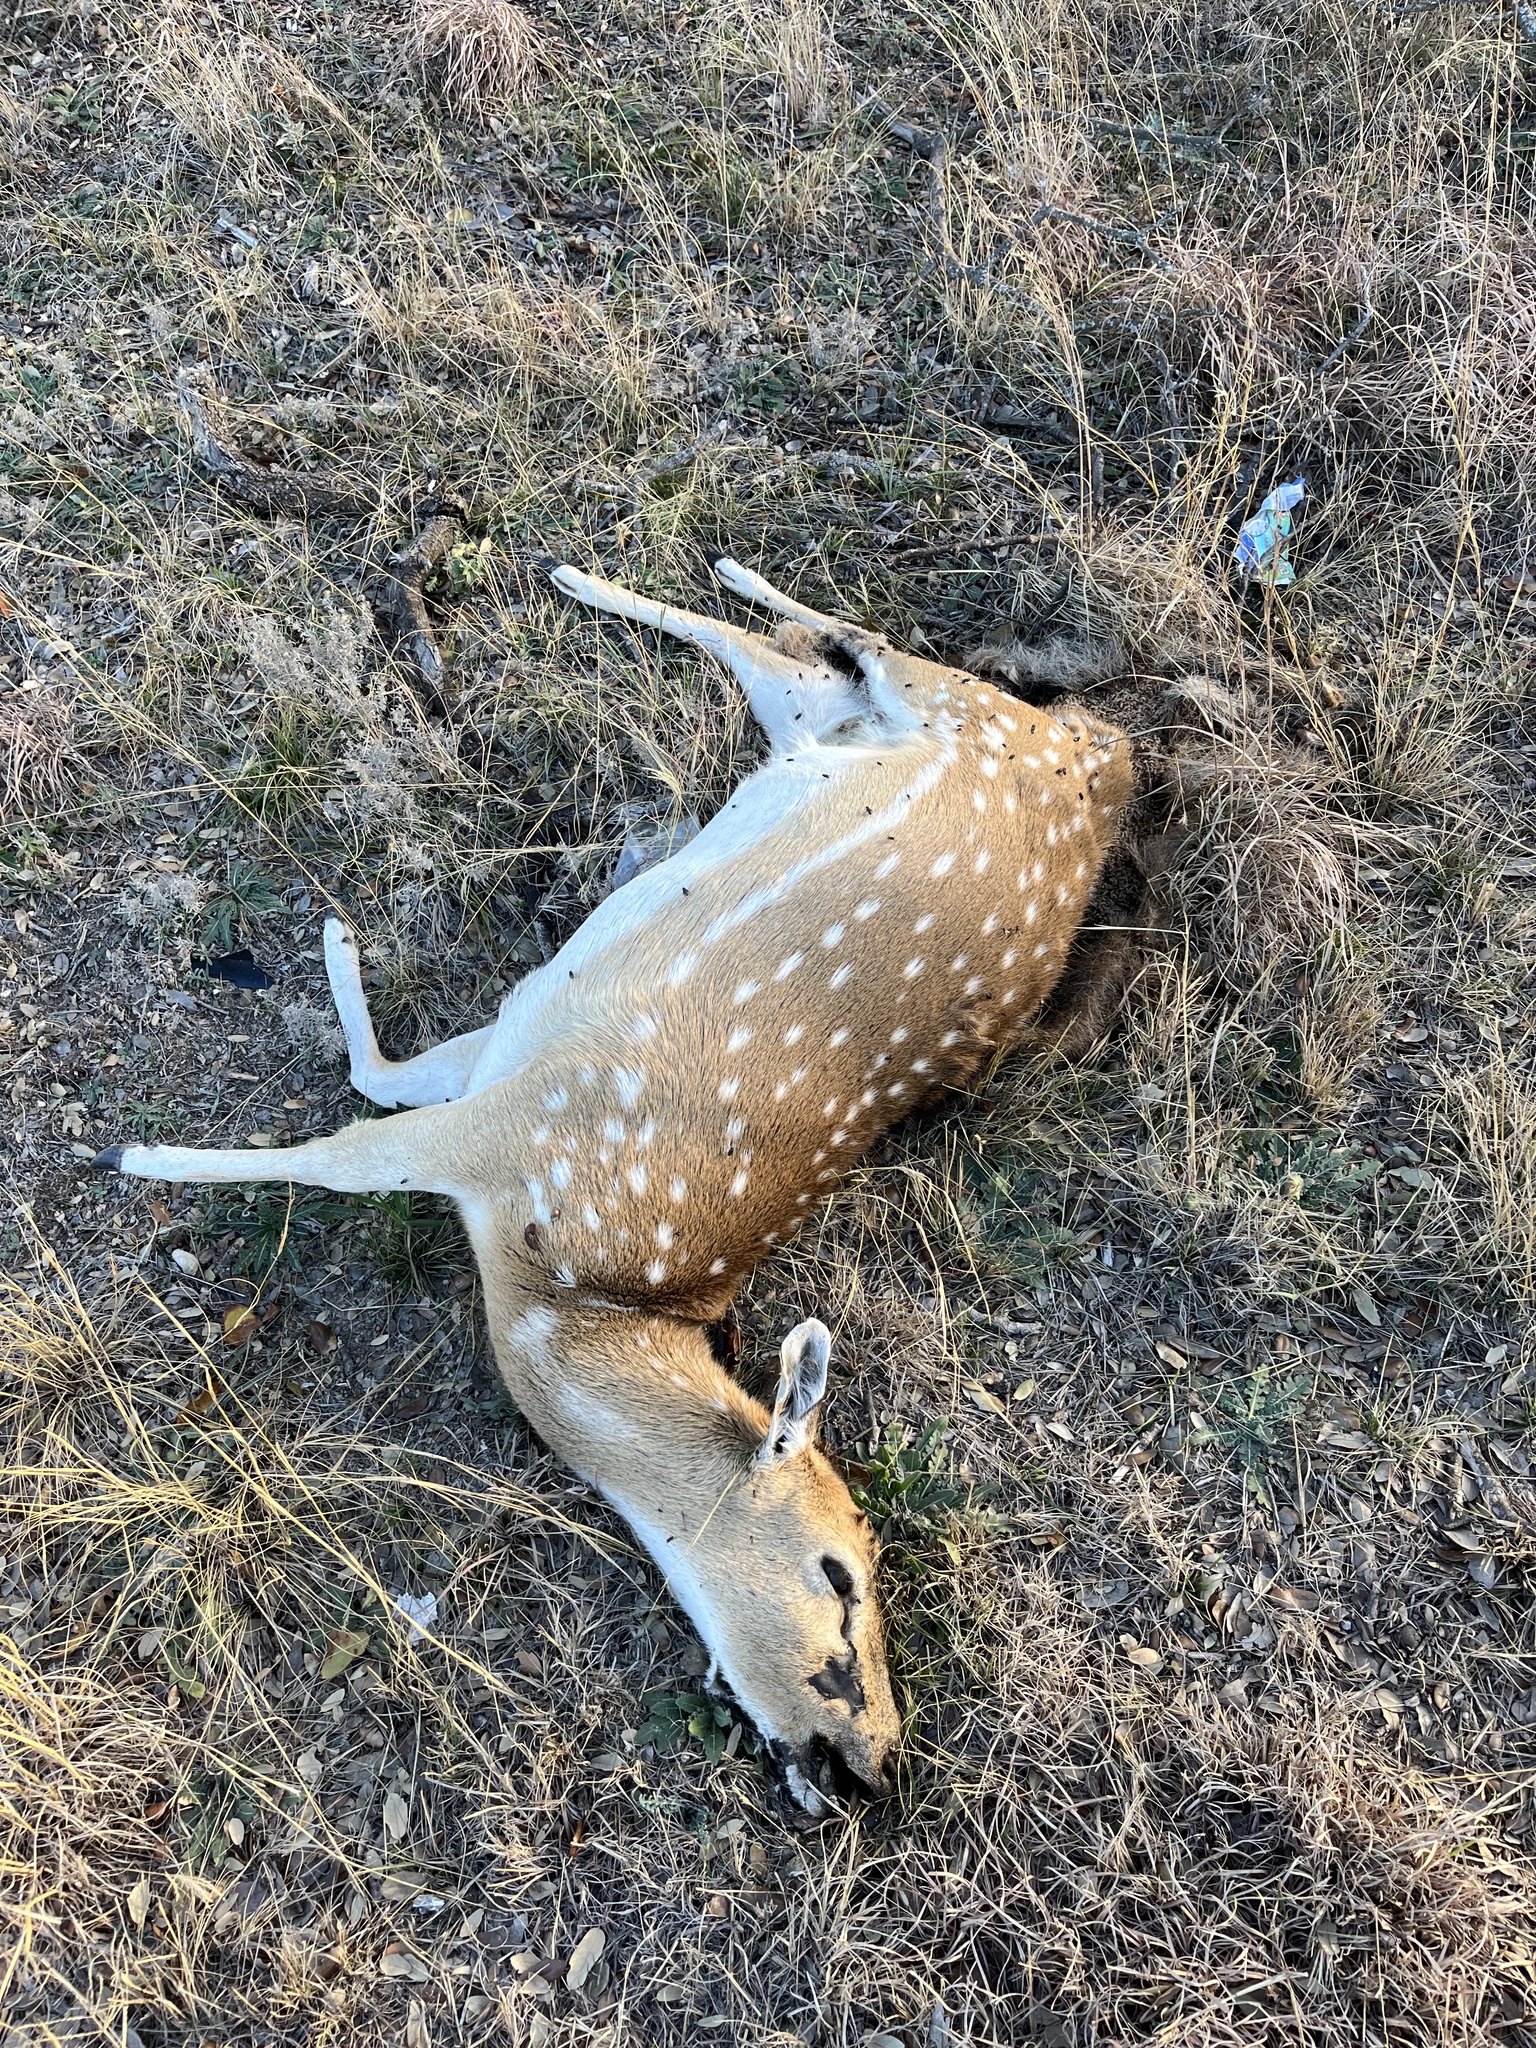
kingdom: Animalia
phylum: Chordata
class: Mammalia
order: Artiodactyla
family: Cervidae
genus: Axis
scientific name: Axis axis
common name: Chital
